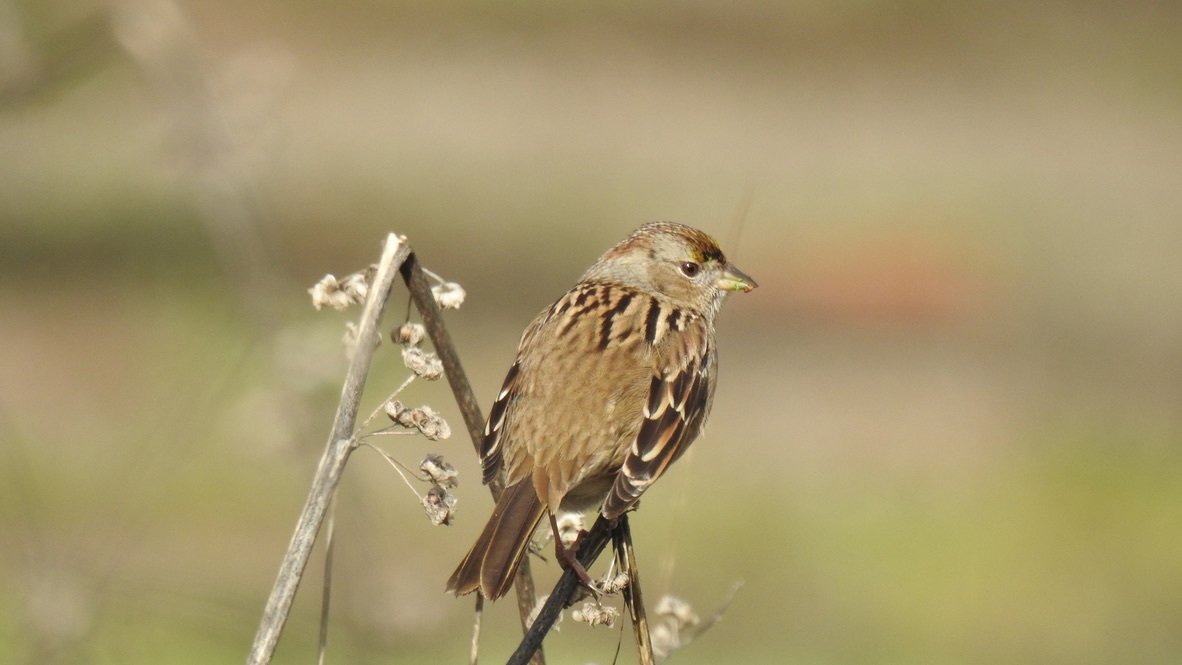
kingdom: Animalia
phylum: Chordata
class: Aves
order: Passeriformes
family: Passerellidae
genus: Zonotrichia
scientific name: Zonotrichia atricapilla
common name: Golden-crowned sparrow
